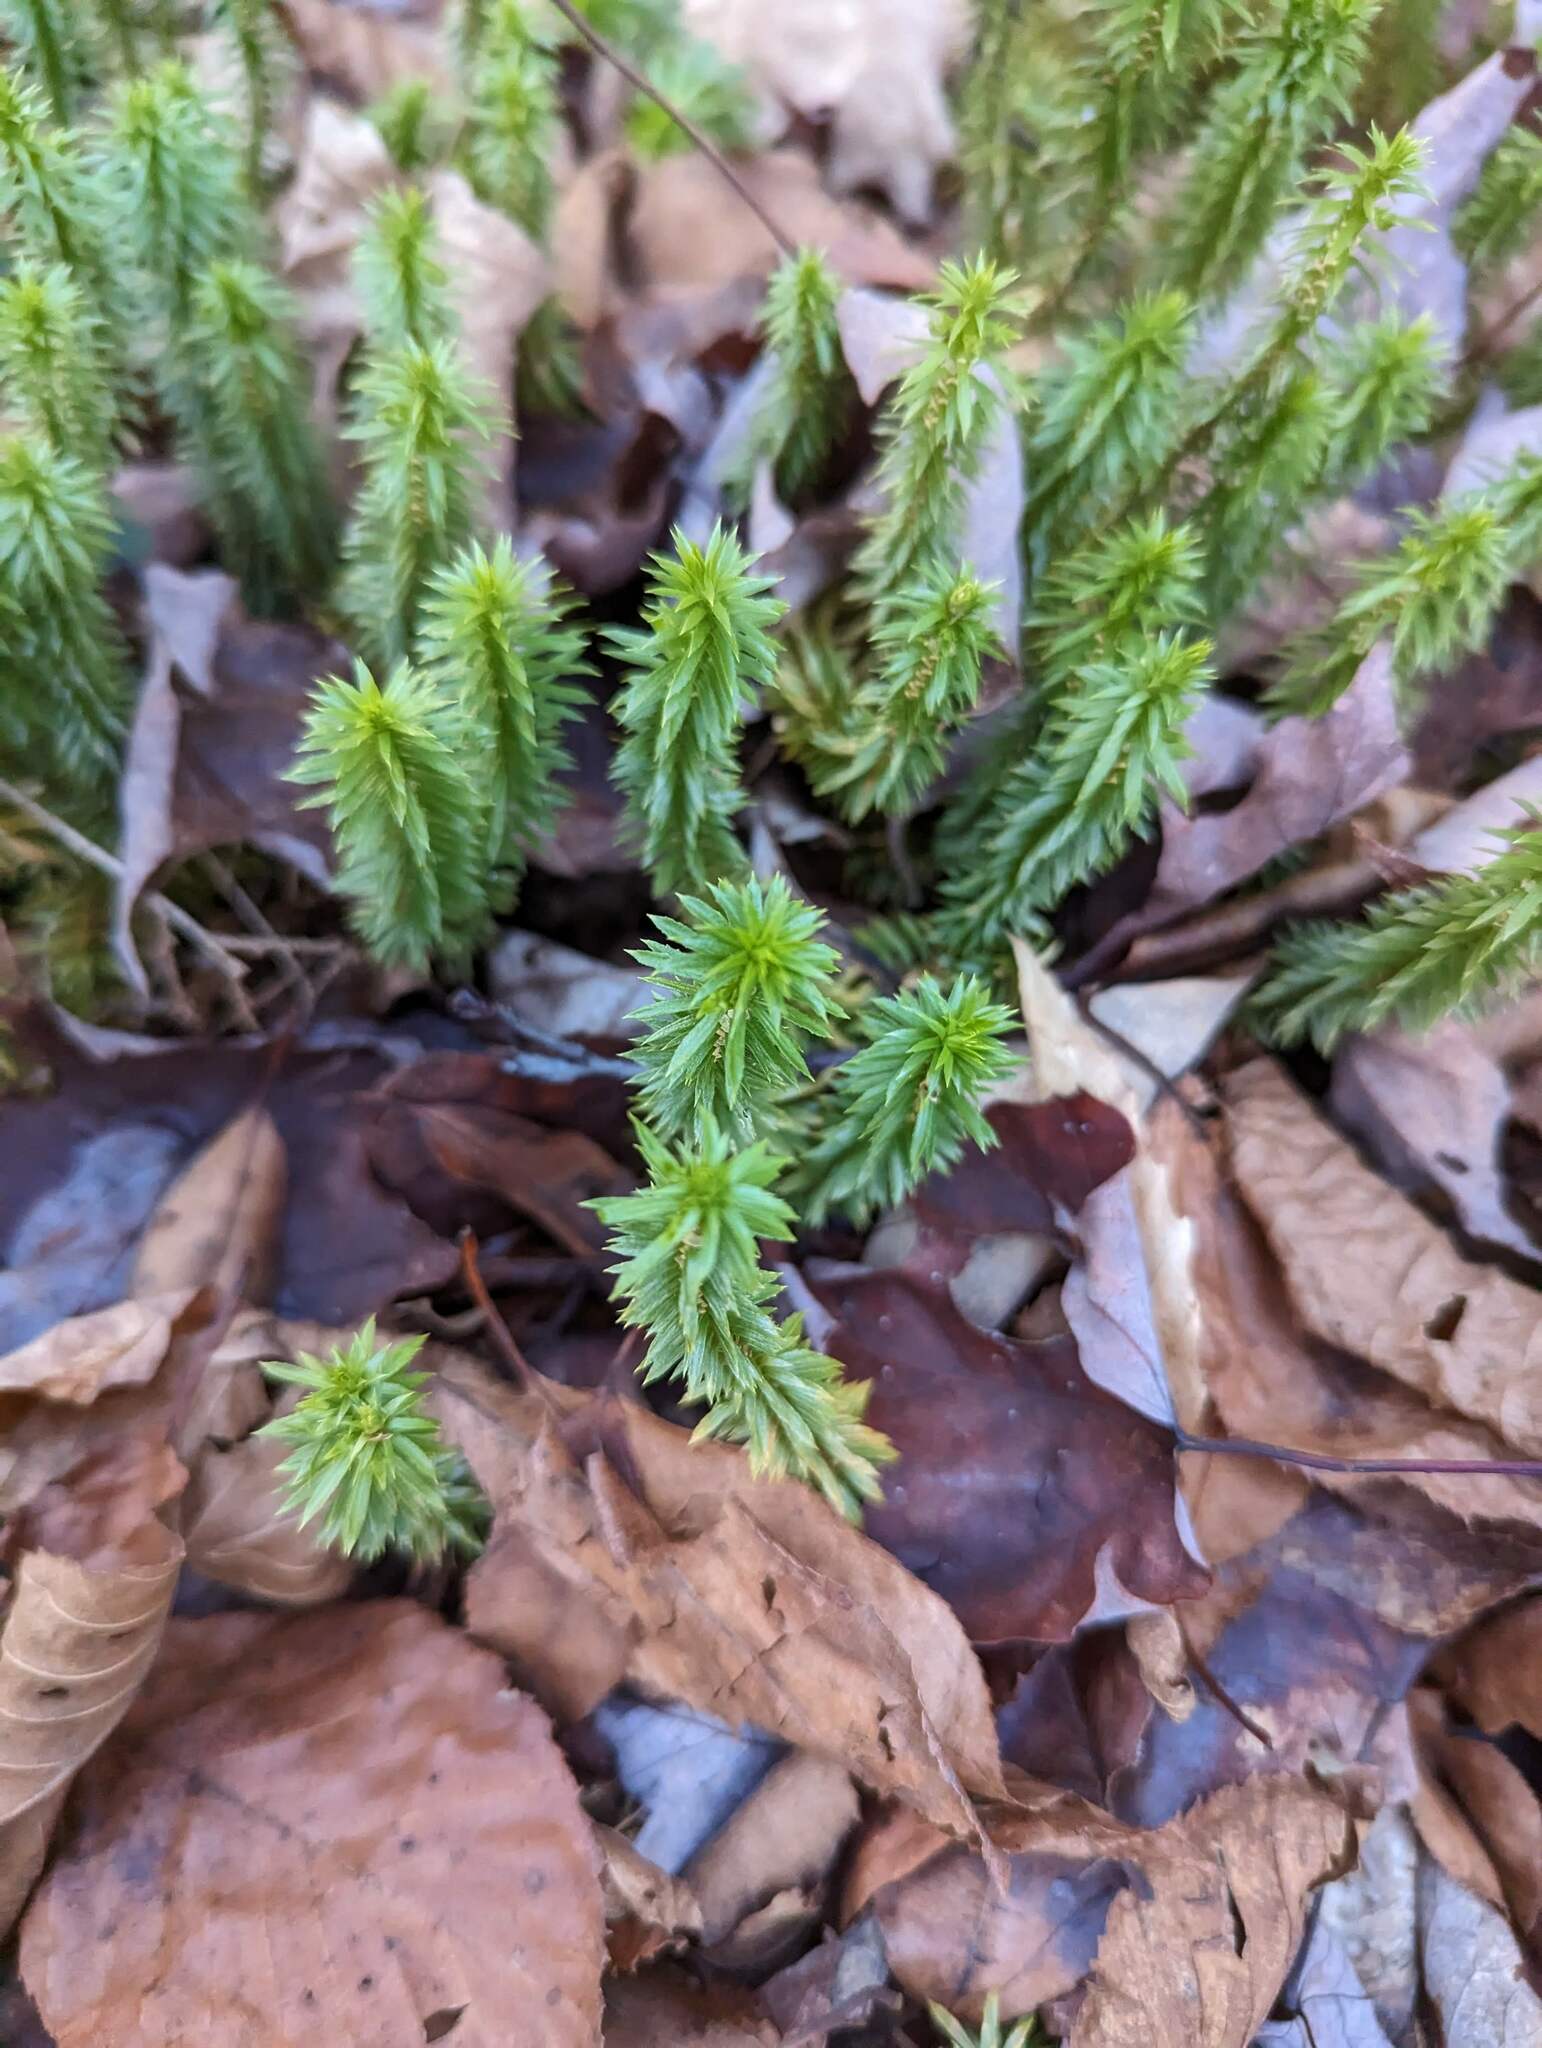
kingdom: Plantae
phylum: Tracheophyta
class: Lycopodiopsida
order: Lycopodiales
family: Lycopodiaceae
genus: Huperzia
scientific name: Huperzia lucidula
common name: Shining clubmoss
